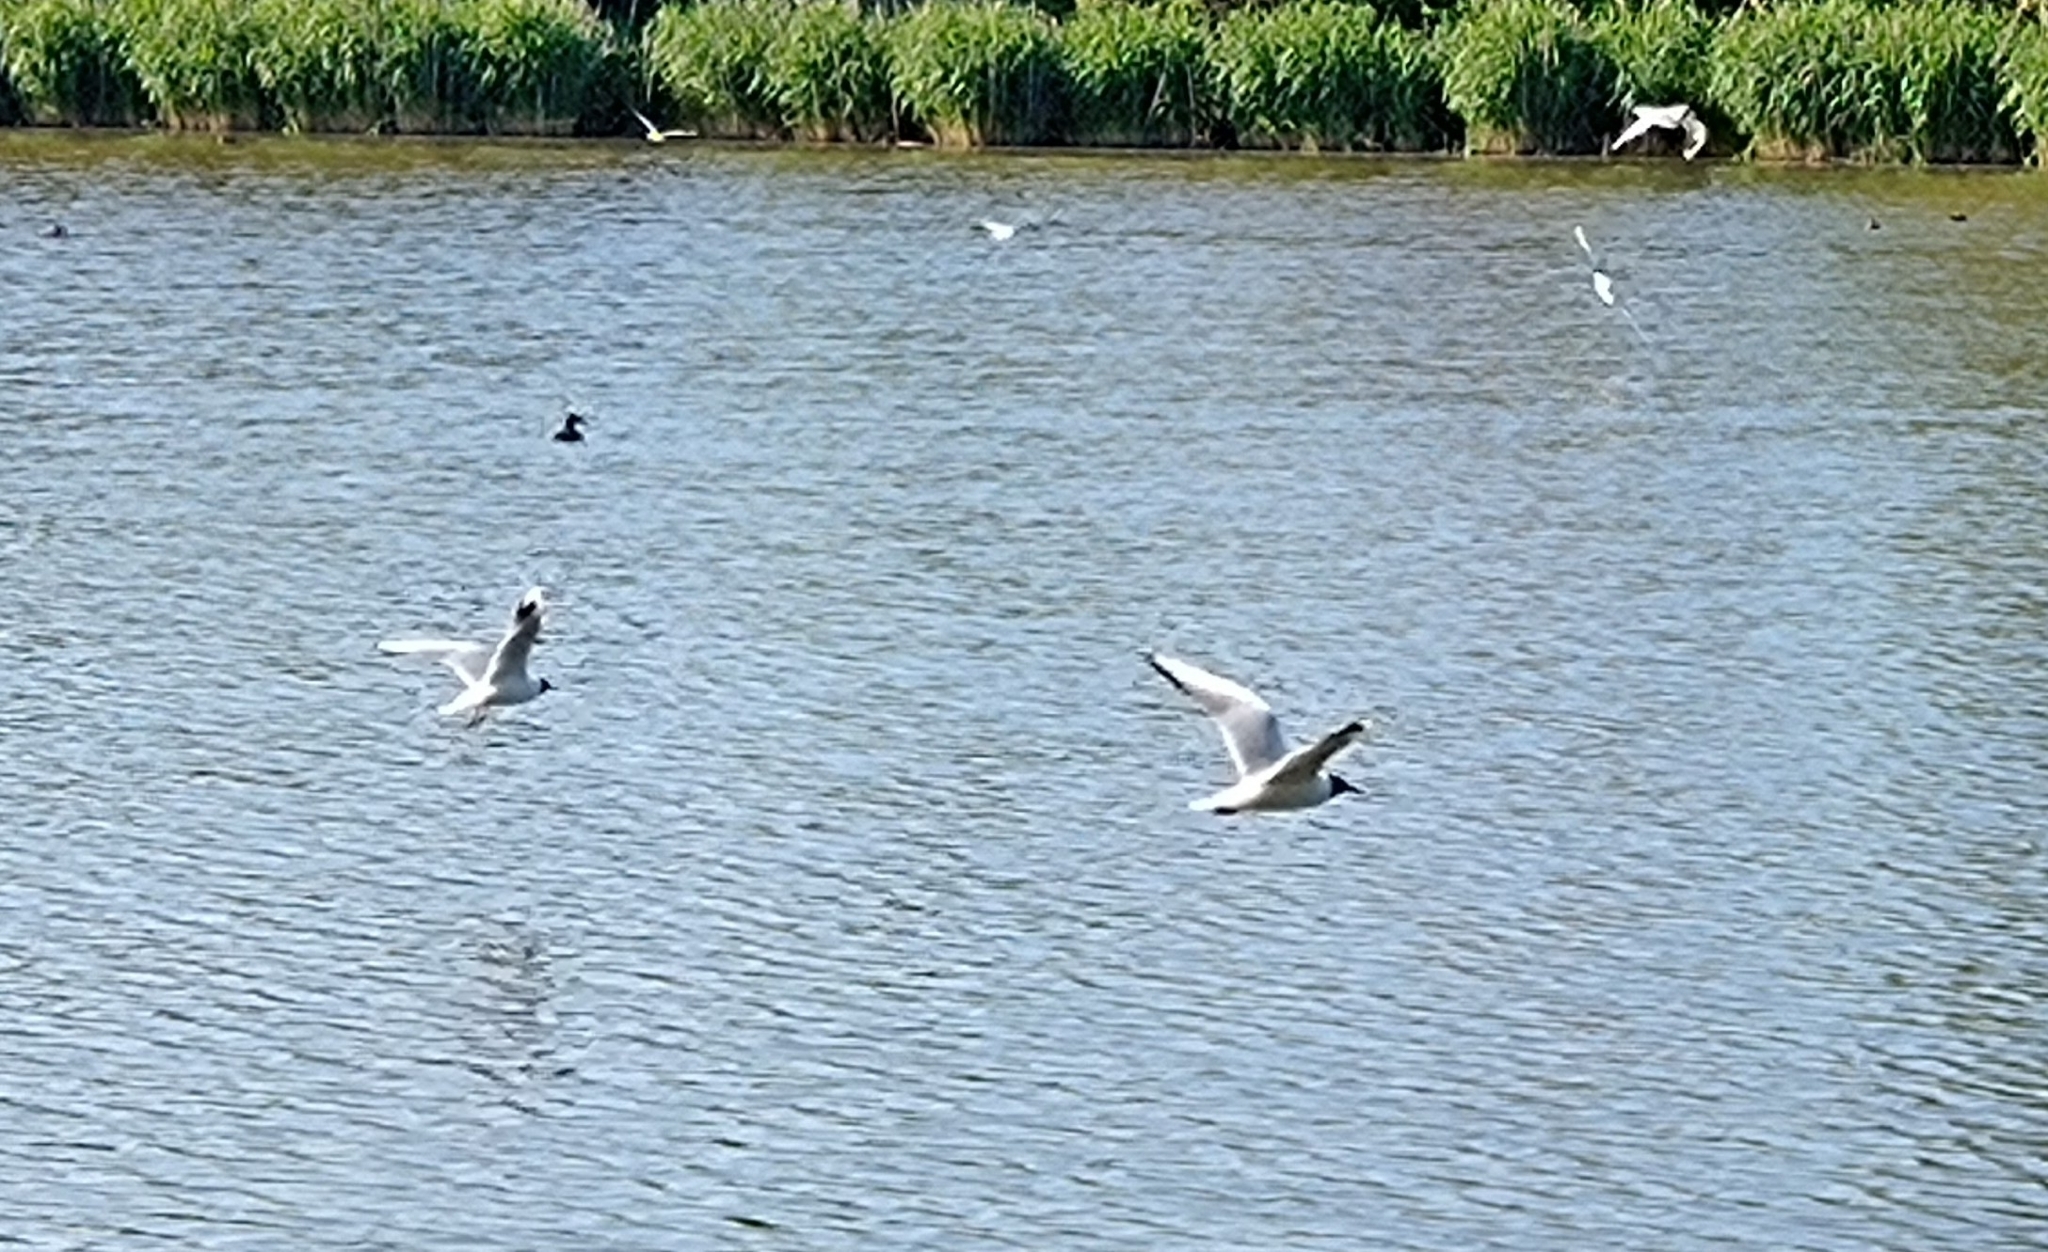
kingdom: Animalia
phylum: Chordata
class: Aves
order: Charadriiformes
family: Laridae
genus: Chroicocephalus
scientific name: Chroicocephalus ridibundus
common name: Black-headed gull
